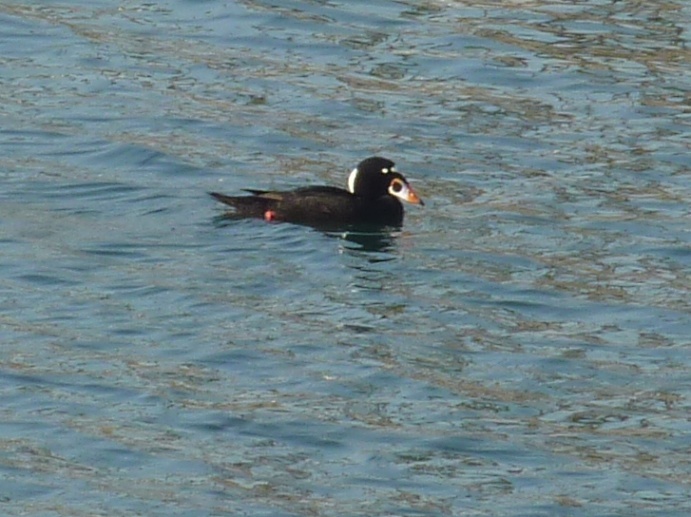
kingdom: Animalia
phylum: Chordata
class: Aves
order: Anseriformes
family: Anatidae
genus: Melanitta
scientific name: Melanitta perspicillata
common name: Surf scoter
